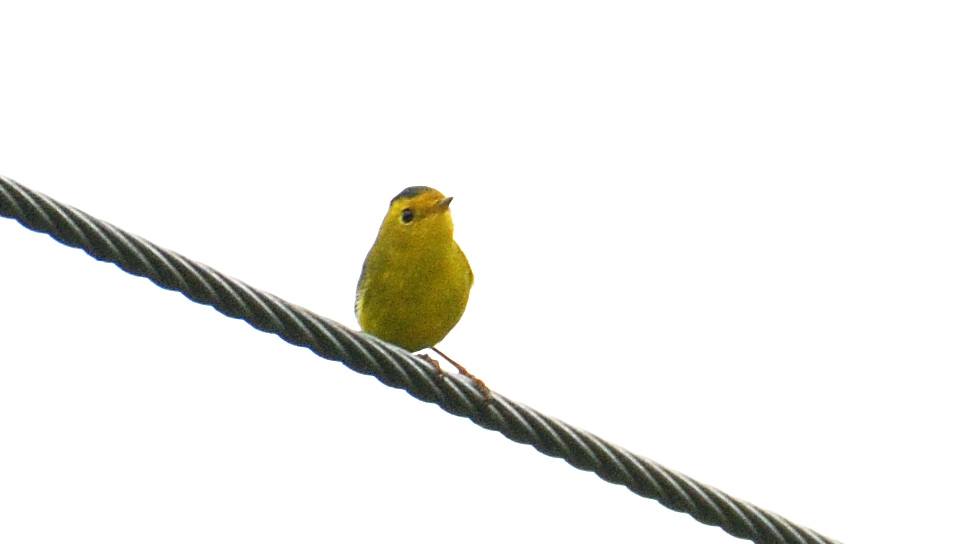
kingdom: Animalia
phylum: Chordata
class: Aves
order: Passeriformes
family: Parulidae
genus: Cardellina
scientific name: Cardellina pusilla
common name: Wilson's warbler
